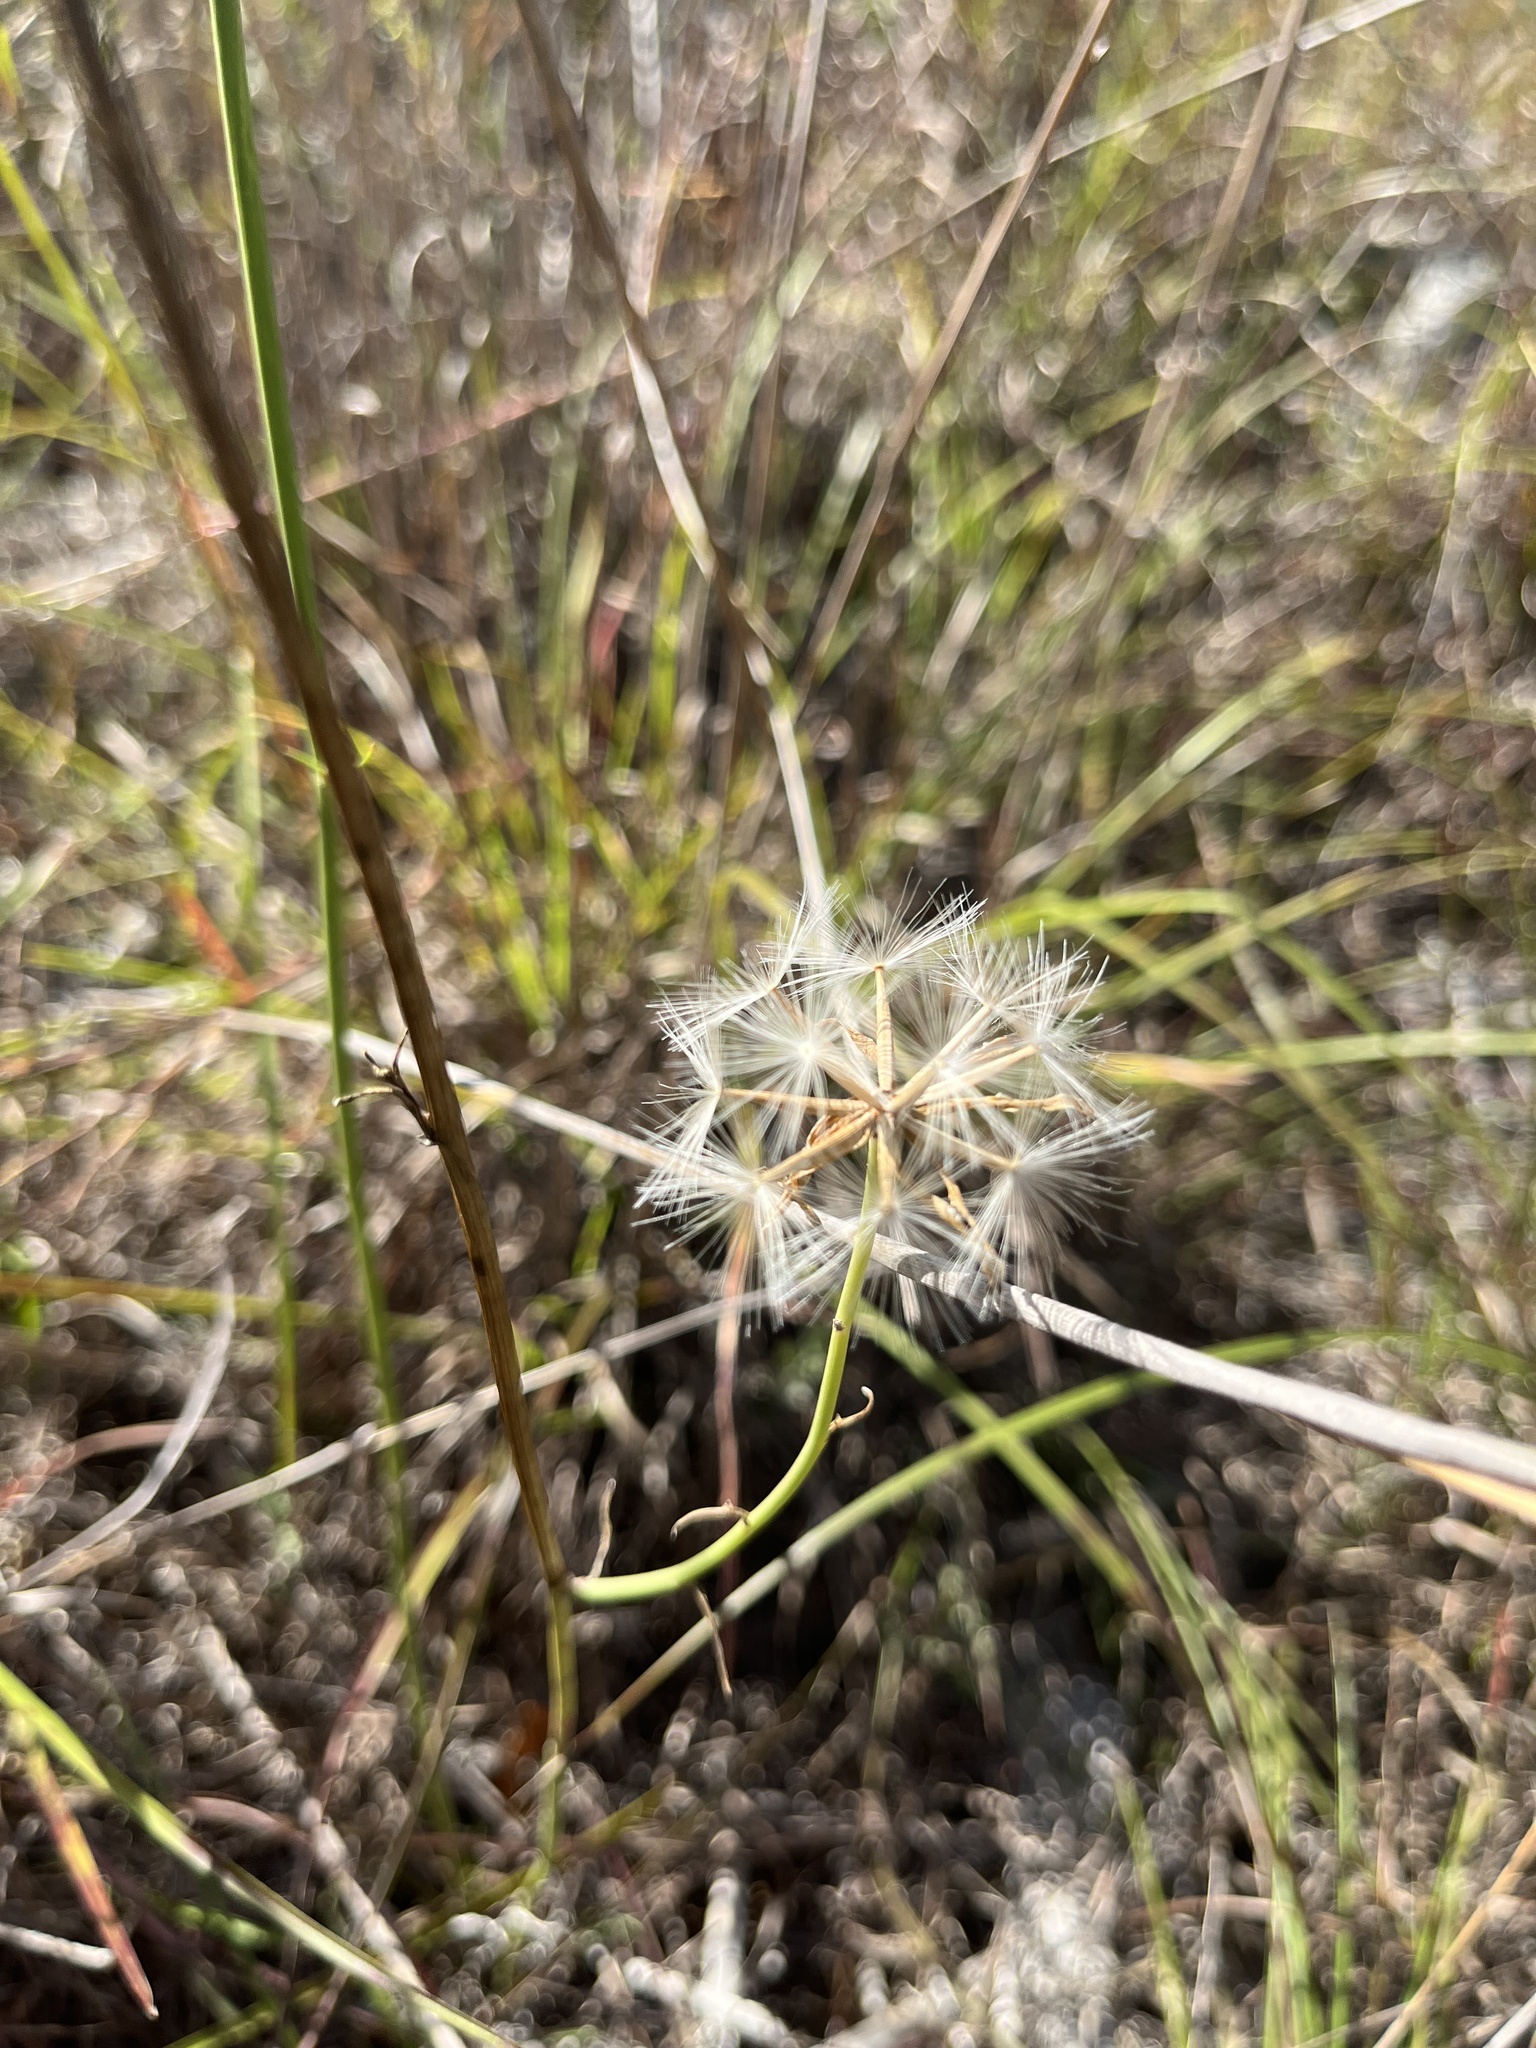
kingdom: Plantae
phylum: Tracheophyta
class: Magnoliopsida
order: Asterales
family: Asteraceae
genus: Lygodesmia
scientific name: Lygodesmia texana
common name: Texas skeleton-plant
